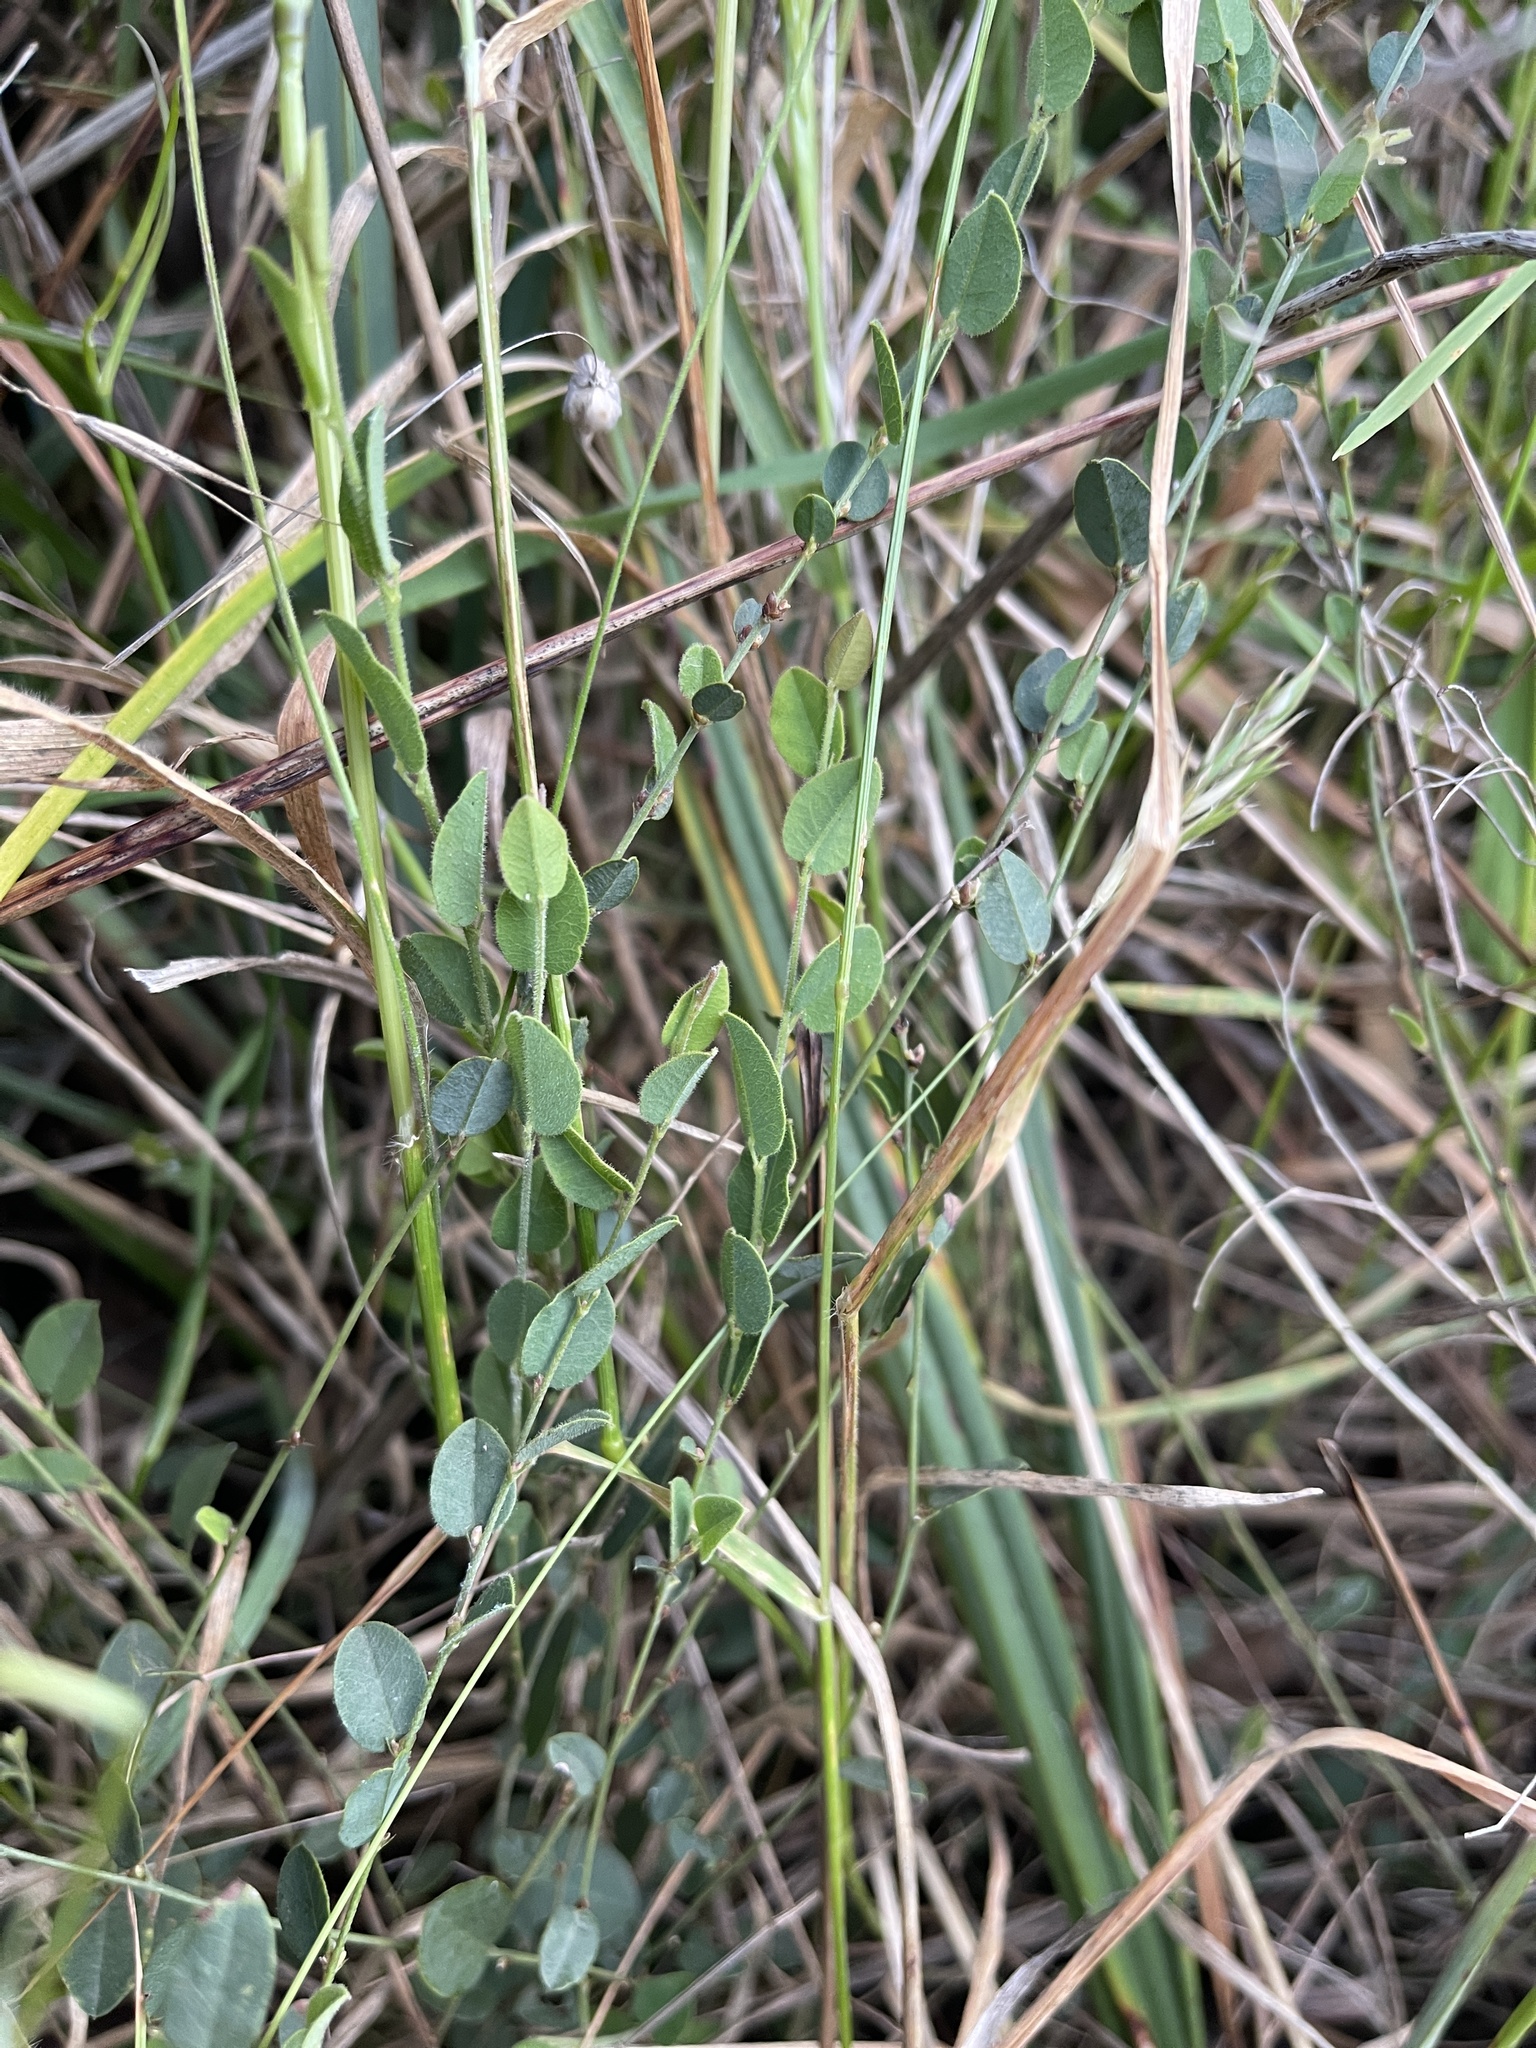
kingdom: Plantae
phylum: Tracheophyta
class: Magnoliopsida
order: Fabales
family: Fabaceae
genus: Bossiaea
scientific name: Bossiaea prostrata
